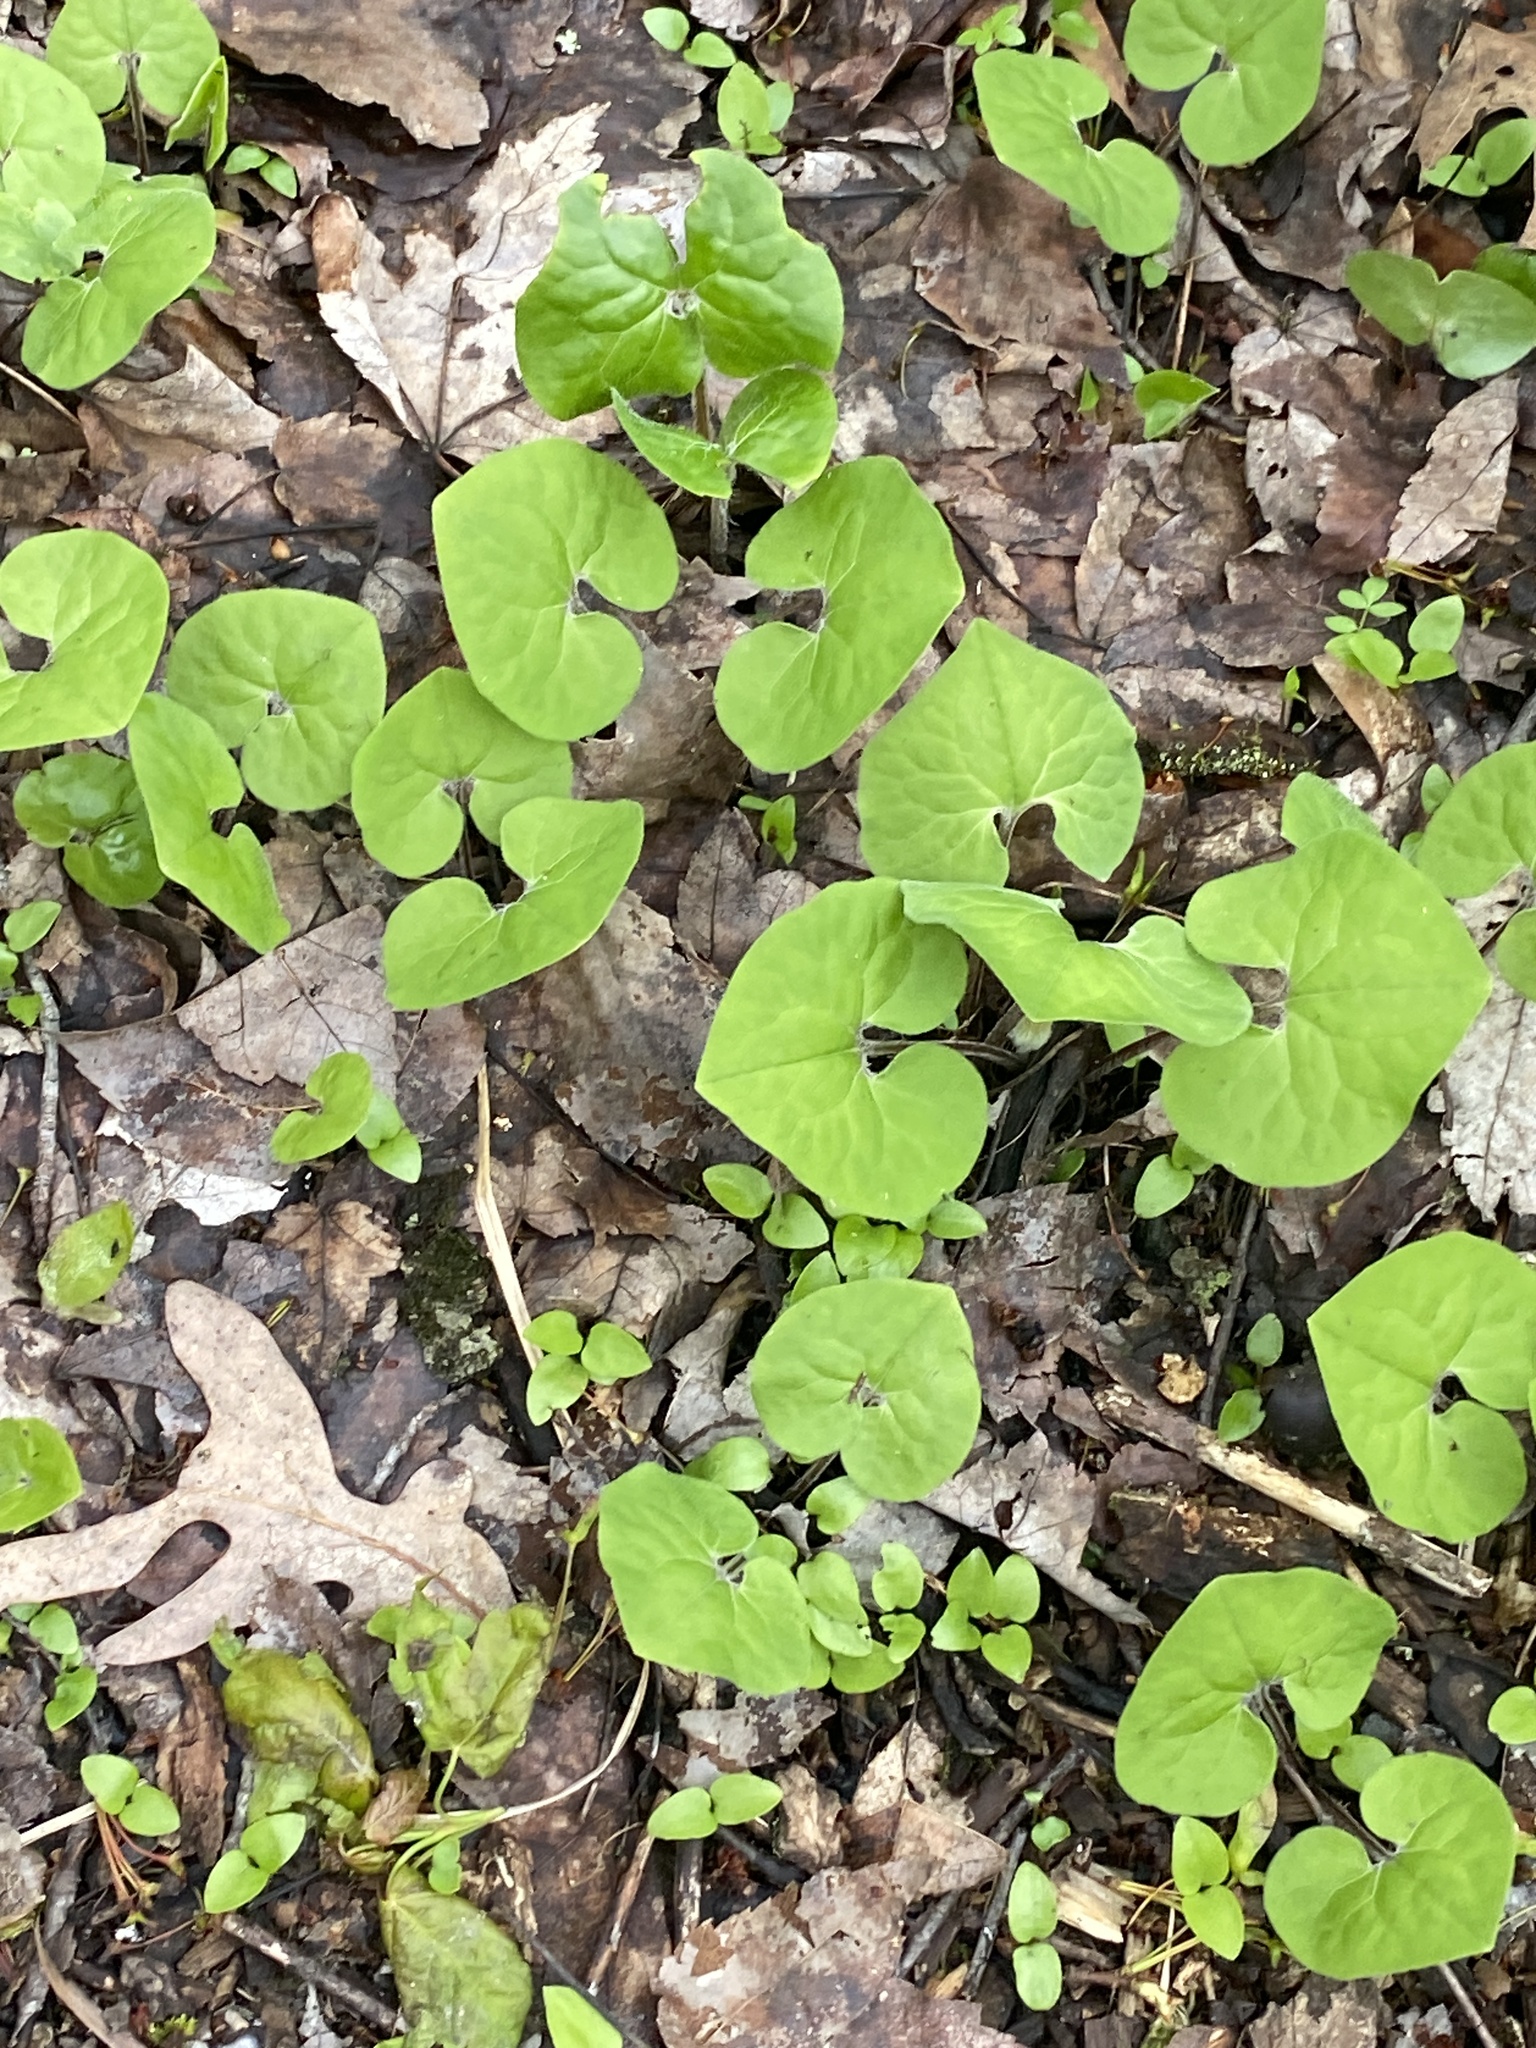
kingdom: Plantae
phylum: Tracheophyta
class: Magnoliopsida
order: Piperales
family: Aristolochiaceae
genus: Asarum
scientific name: Asarum canadense
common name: Wild ginger
